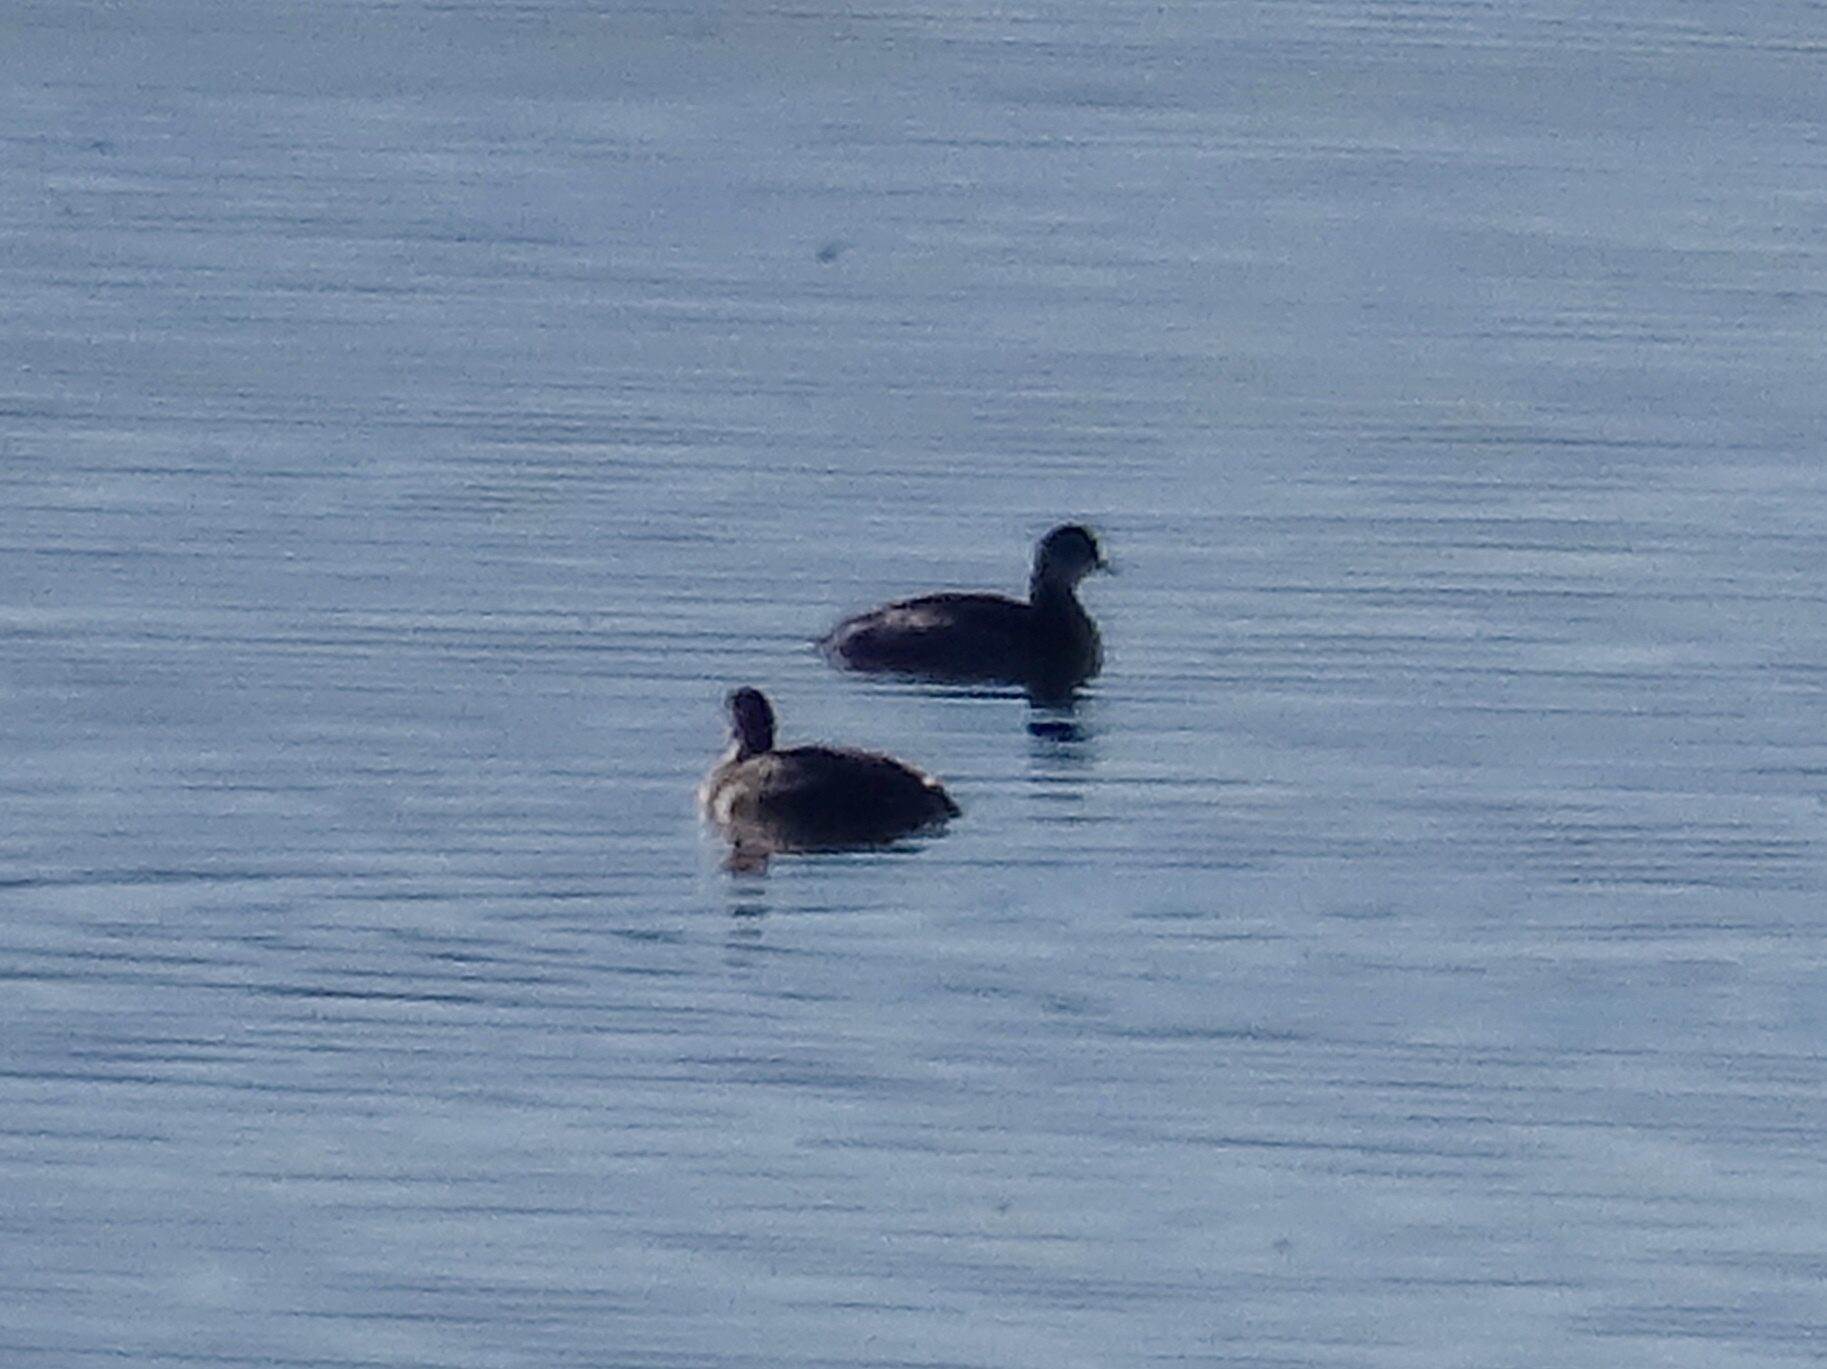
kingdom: Animalia
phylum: Chordata
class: Aves
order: Podicipediformes
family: Podicipedidae
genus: Podiceps
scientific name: Podiceps nigricollis
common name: Black-necked grebe
